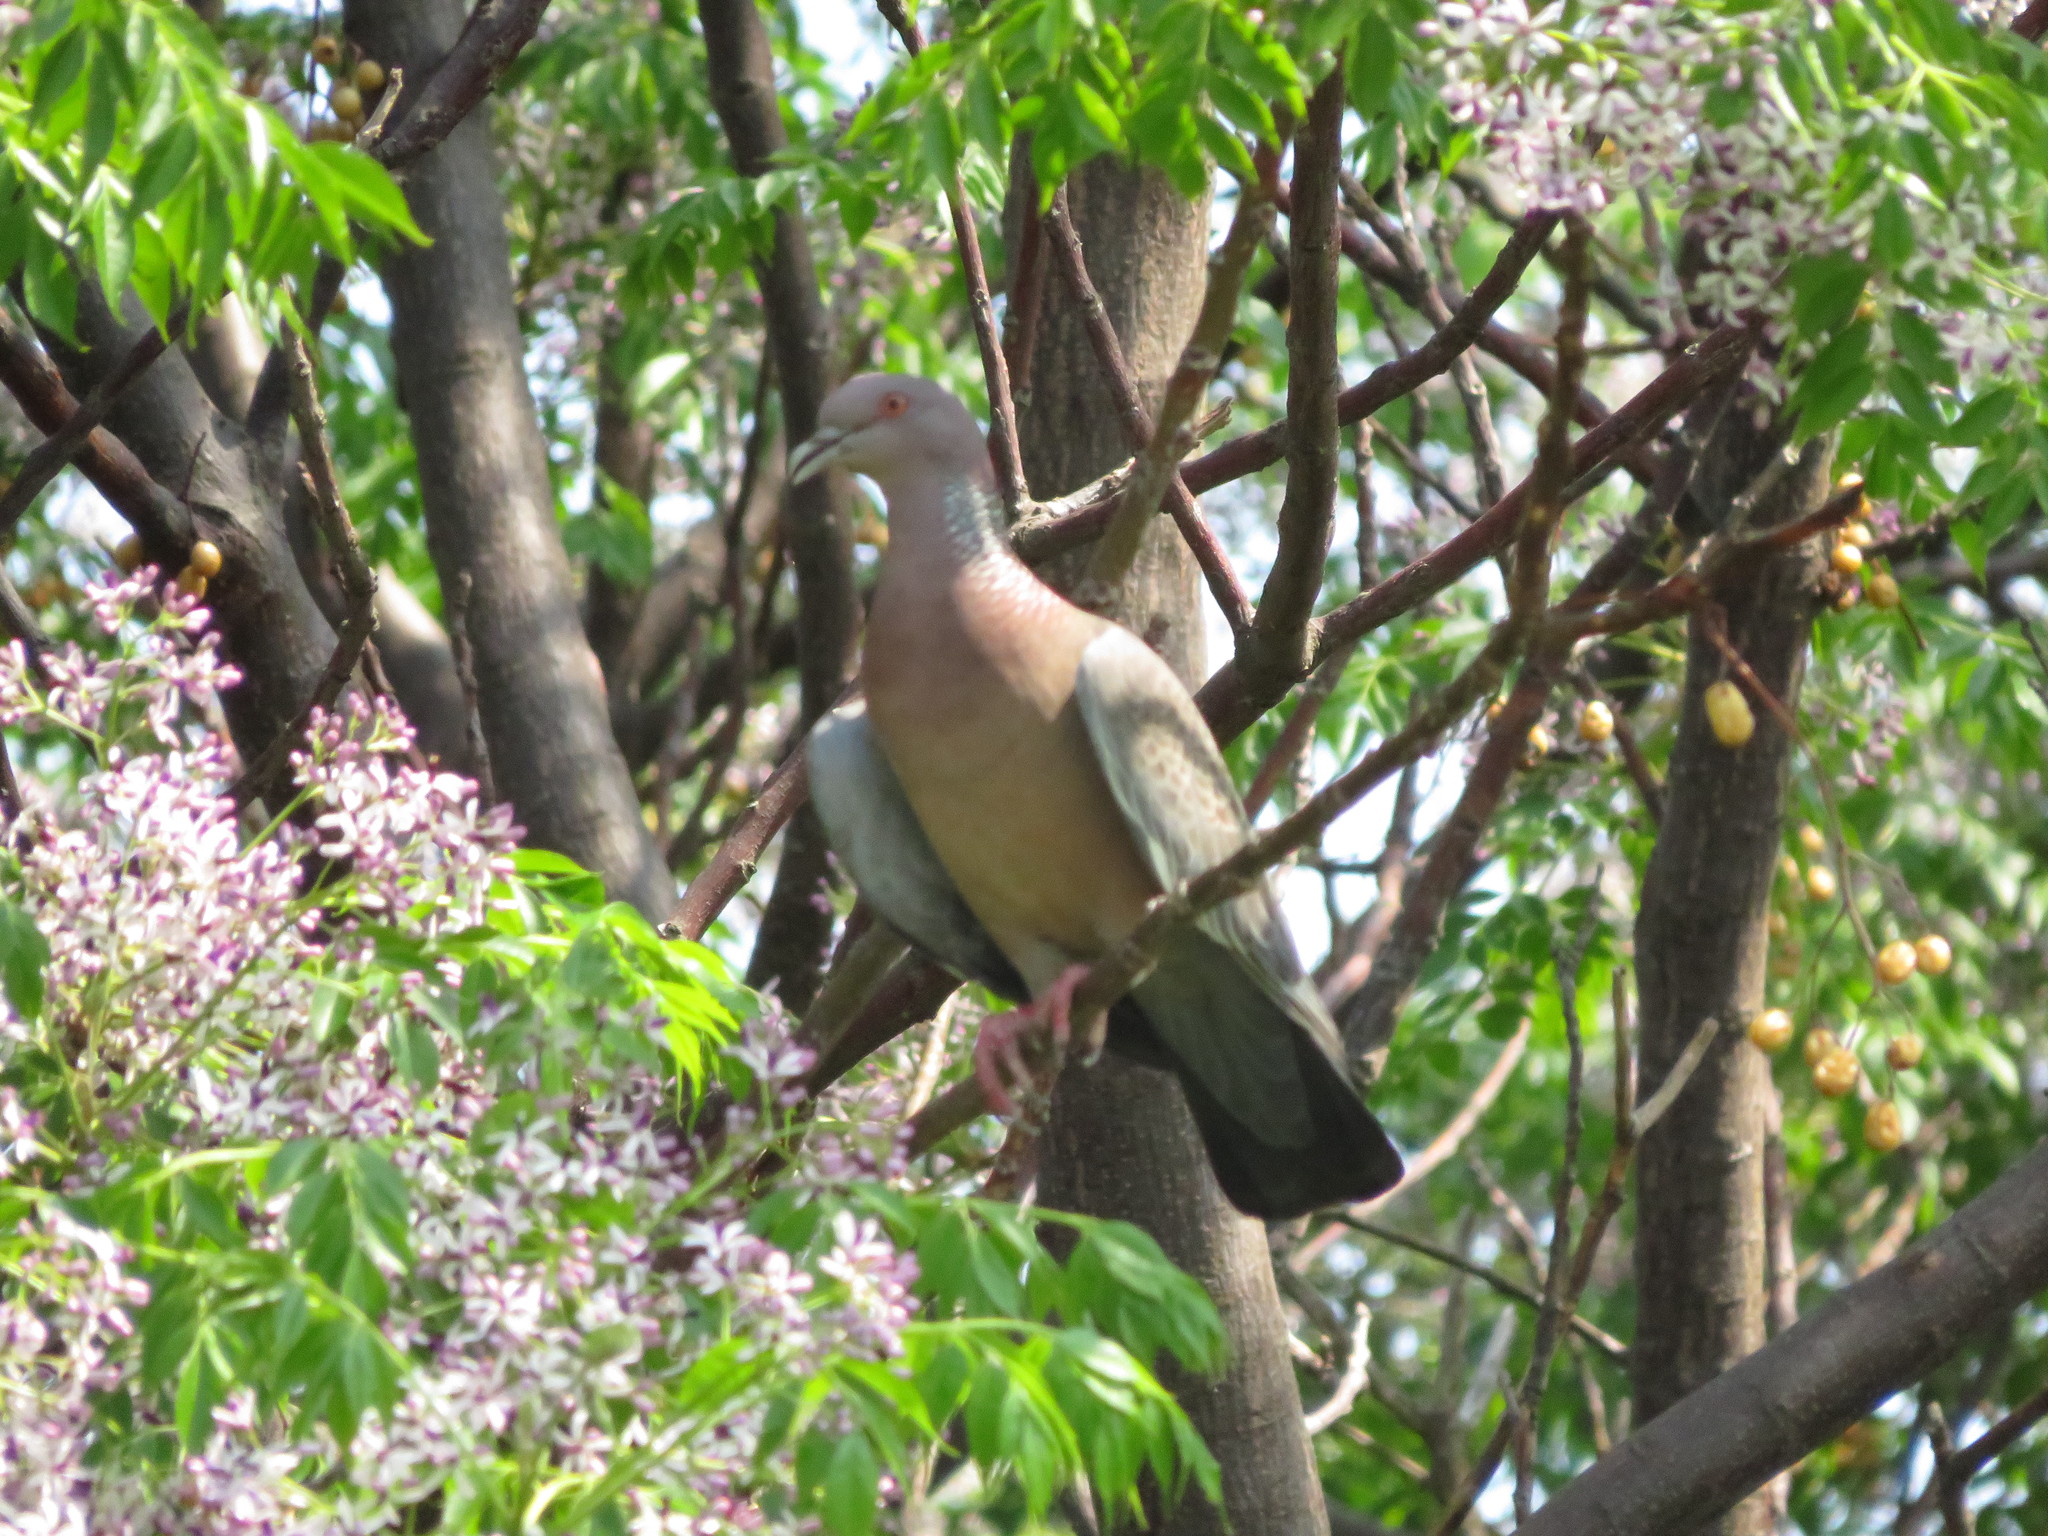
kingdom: Animalia
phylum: Chordata
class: Aves
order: Columbiformes
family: Columbidae
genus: Patagioenas
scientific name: Patagioenas picazuro
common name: Picazuro pigeon
